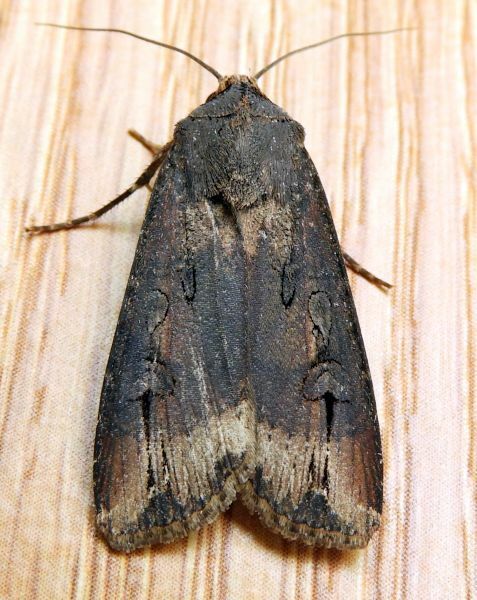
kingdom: Animalia
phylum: Arthropoda
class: Insecta
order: Lepidoptera
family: Noctuidae
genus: Agrotis
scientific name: Agrotis ipsilon
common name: Dark sword-grass
